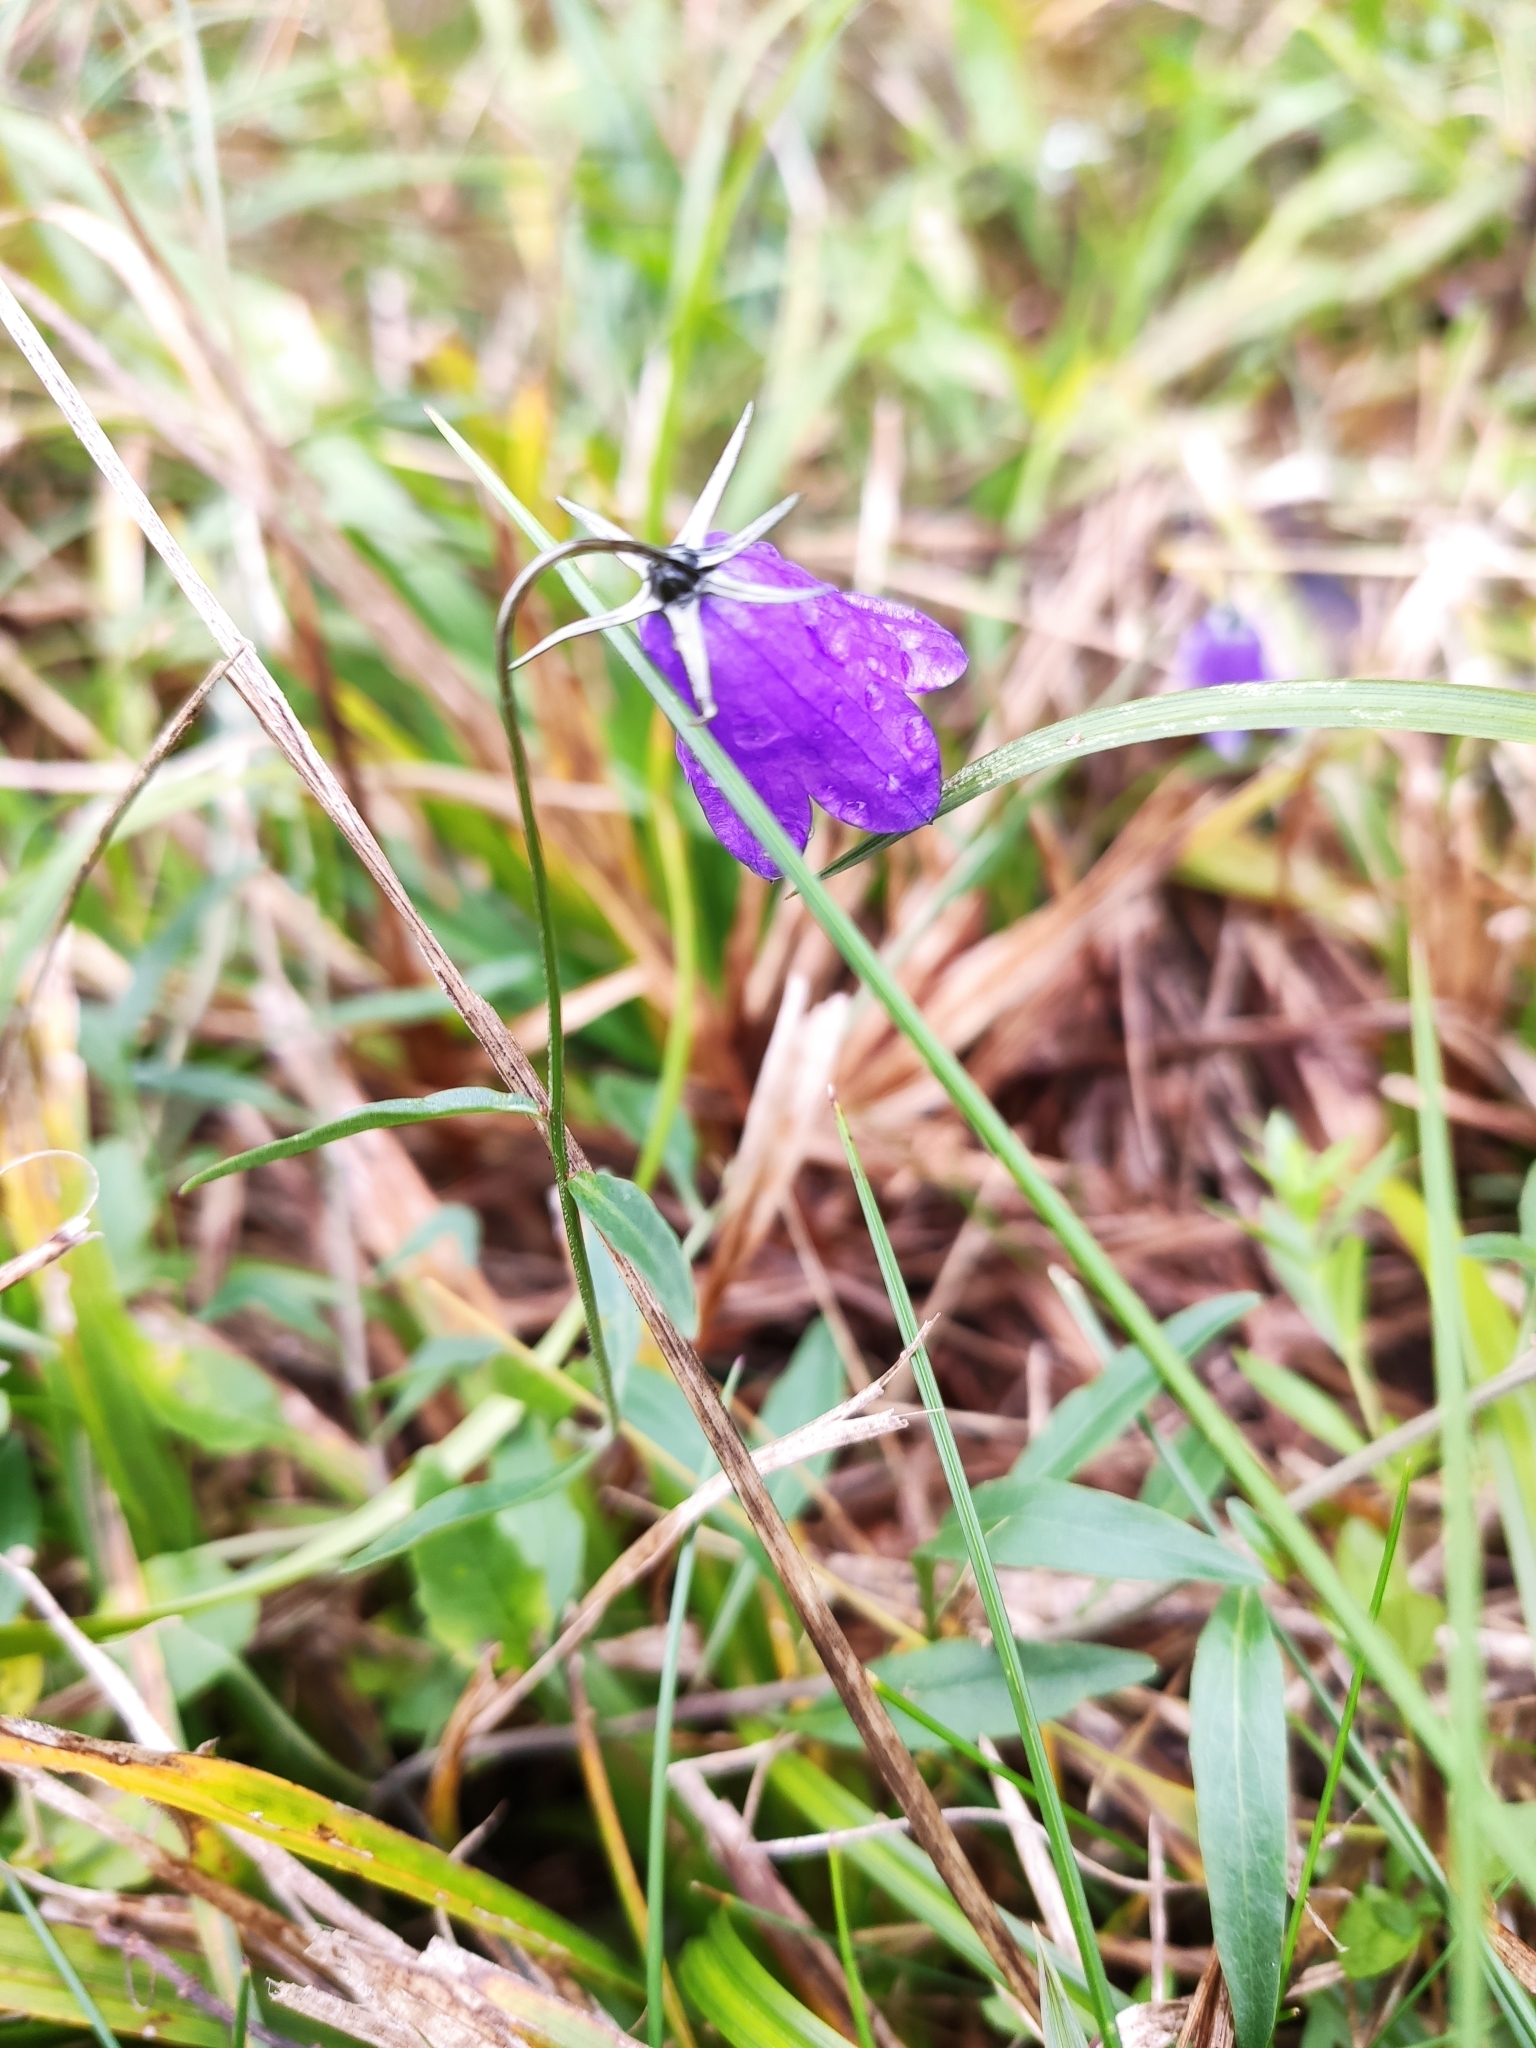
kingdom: Plantae
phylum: Tracheophyta
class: Magnoliopsida
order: Asterales
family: Campanulaceae
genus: Campanula
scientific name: Campanula rotundifolia
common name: Harebell
